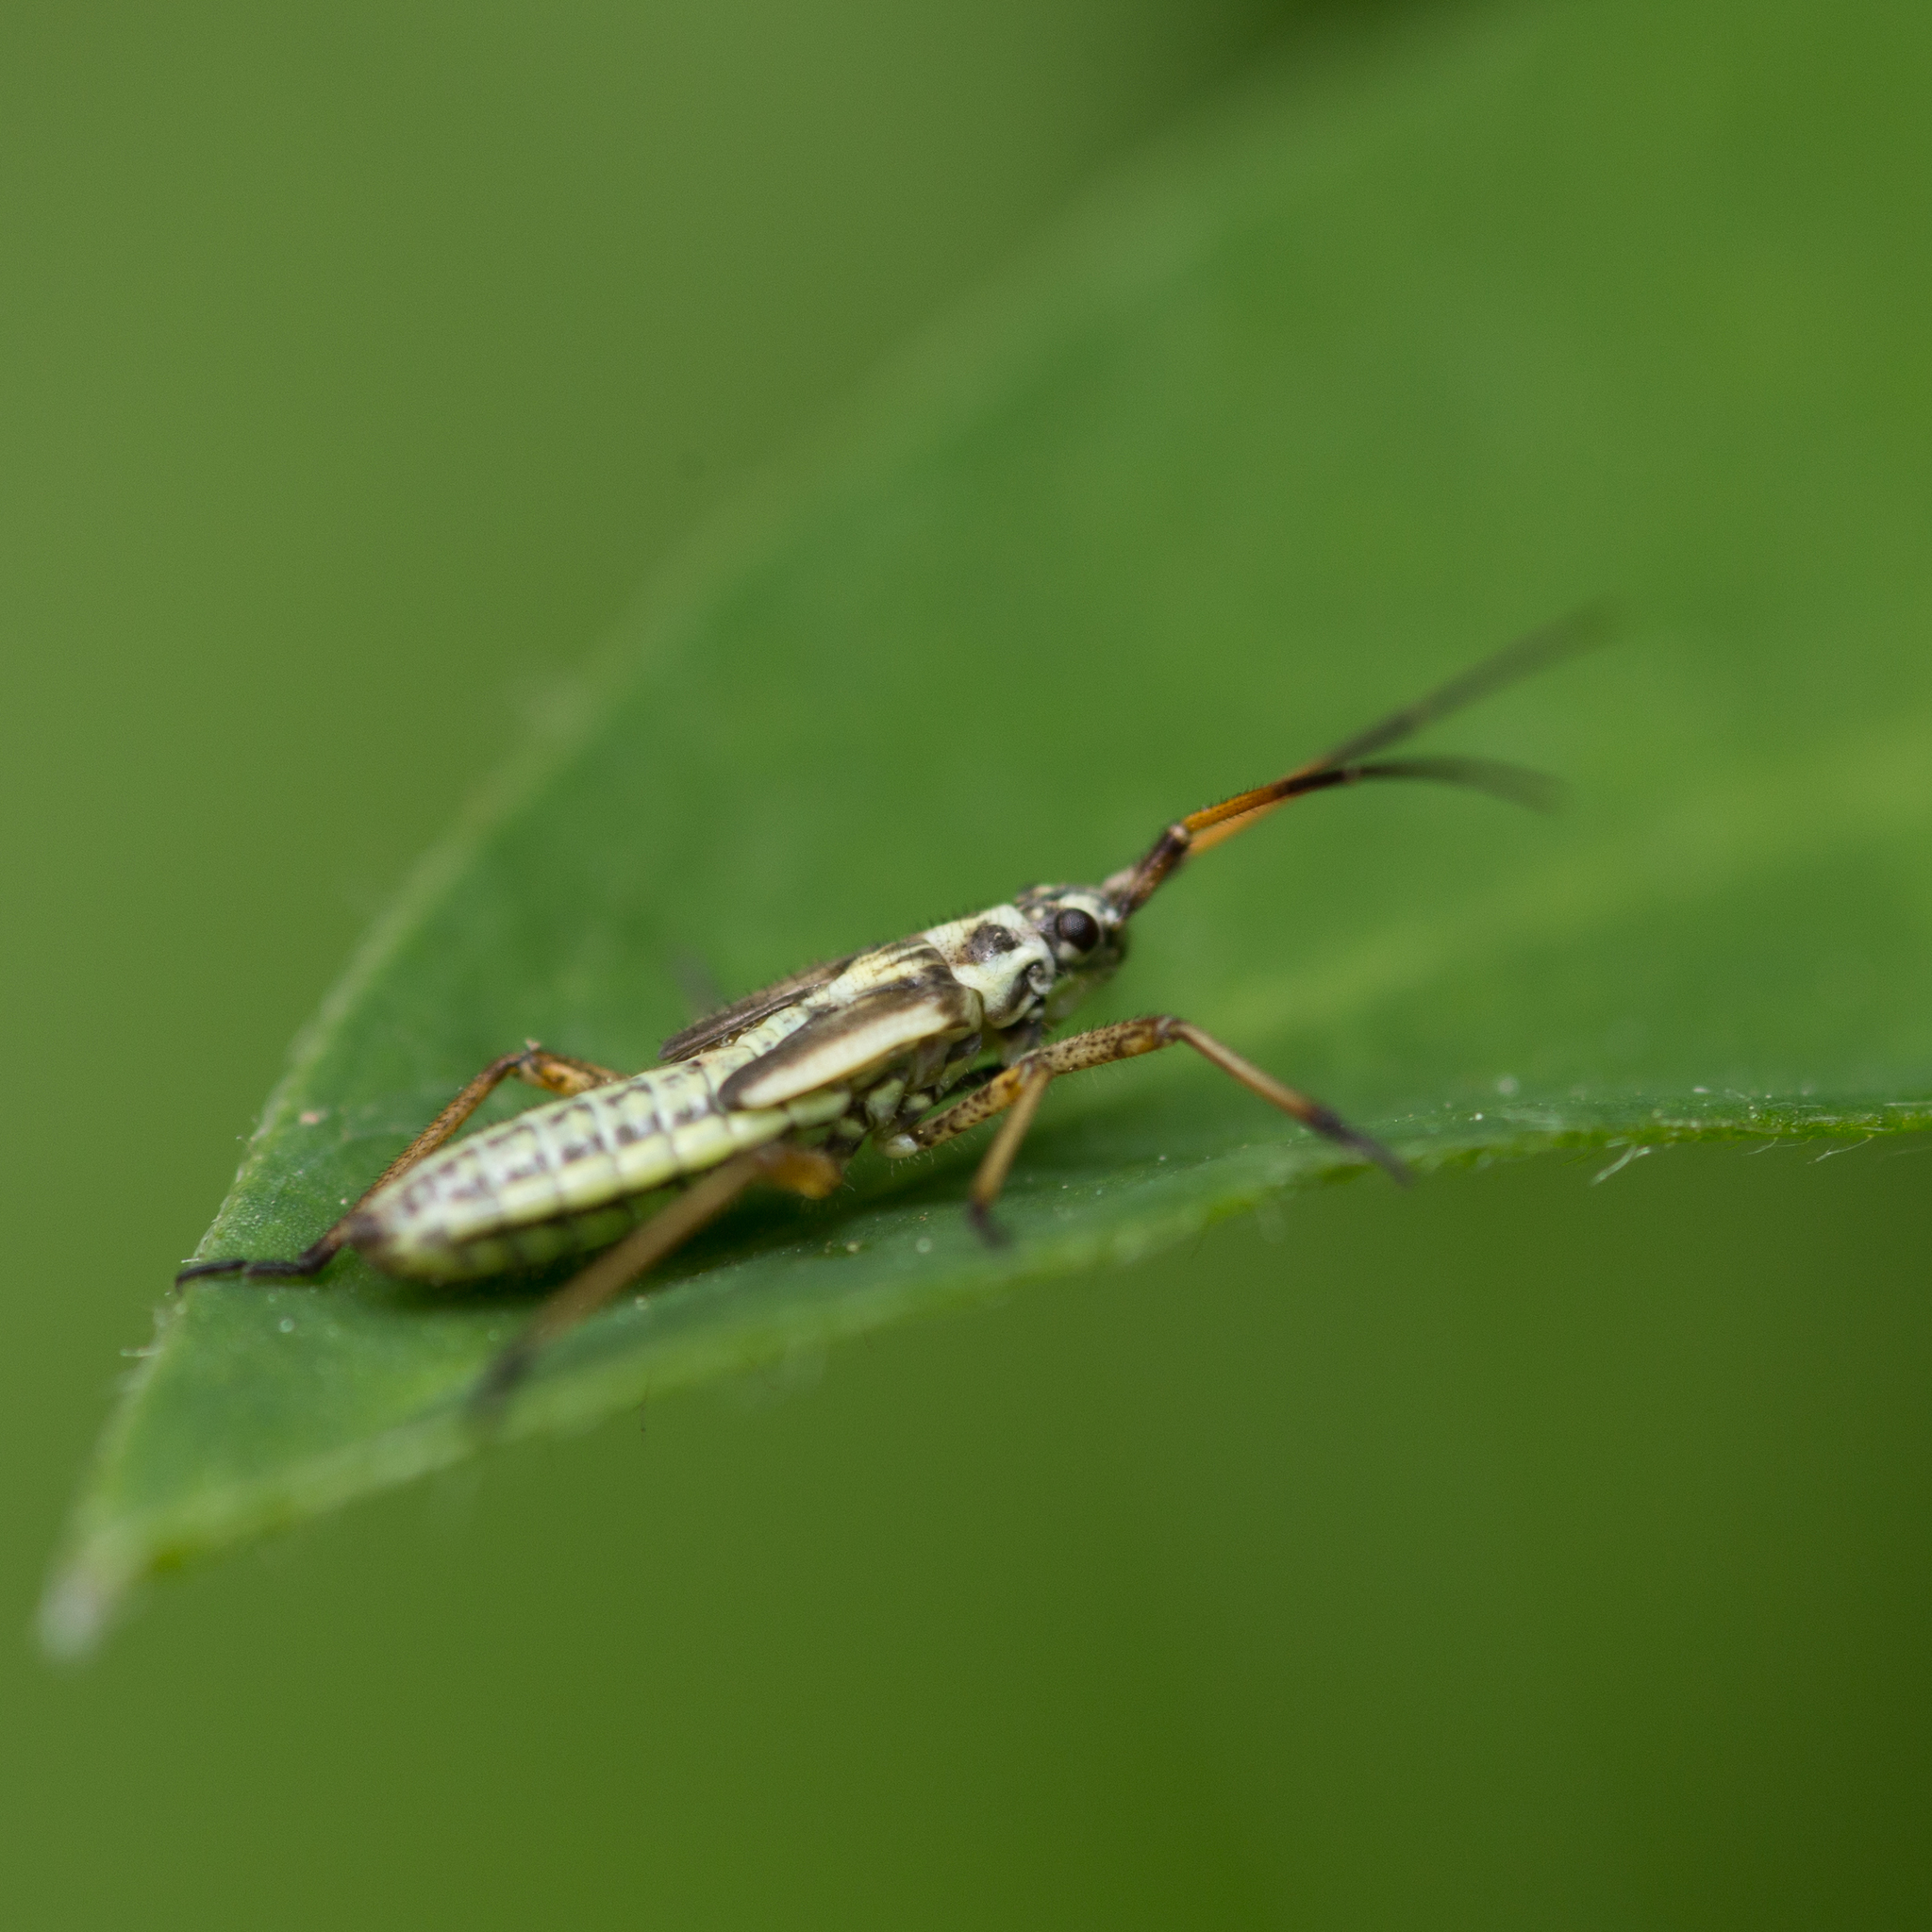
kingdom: Animalia
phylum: Arthropoda
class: Insecta
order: Hemiptera
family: Miridae
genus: Leptopterna
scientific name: Leptopterna dolabrata
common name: Meadow plant bug
